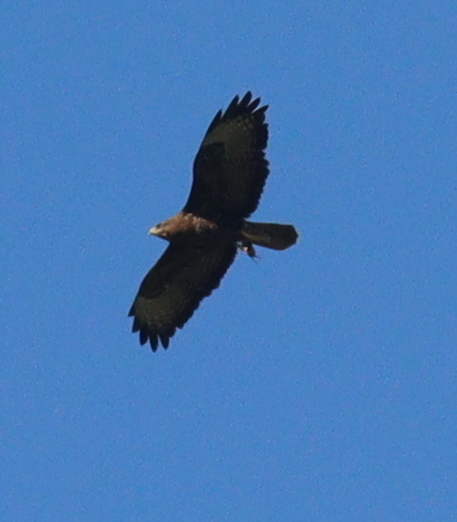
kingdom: Animalia
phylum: Chordata
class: Aves
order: Accipitriformes
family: Accipitridae
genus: Buteo
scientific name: Buteo buteo
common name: Common buzzard
